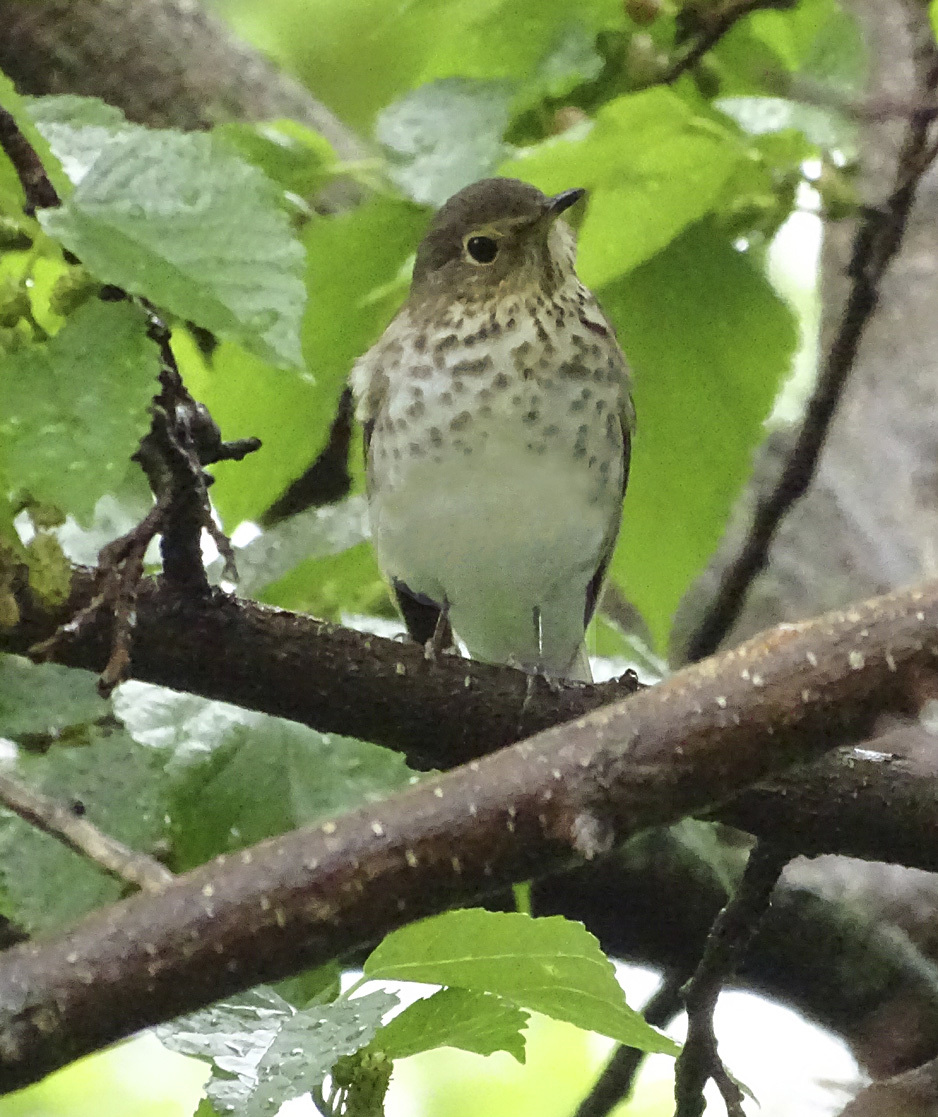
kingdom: Animalia
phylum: Chordata
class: Aves
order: Passeriformes
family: Turdidae
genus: Catharus
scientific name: Catharus ustulatus
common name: Swainson's thrush
